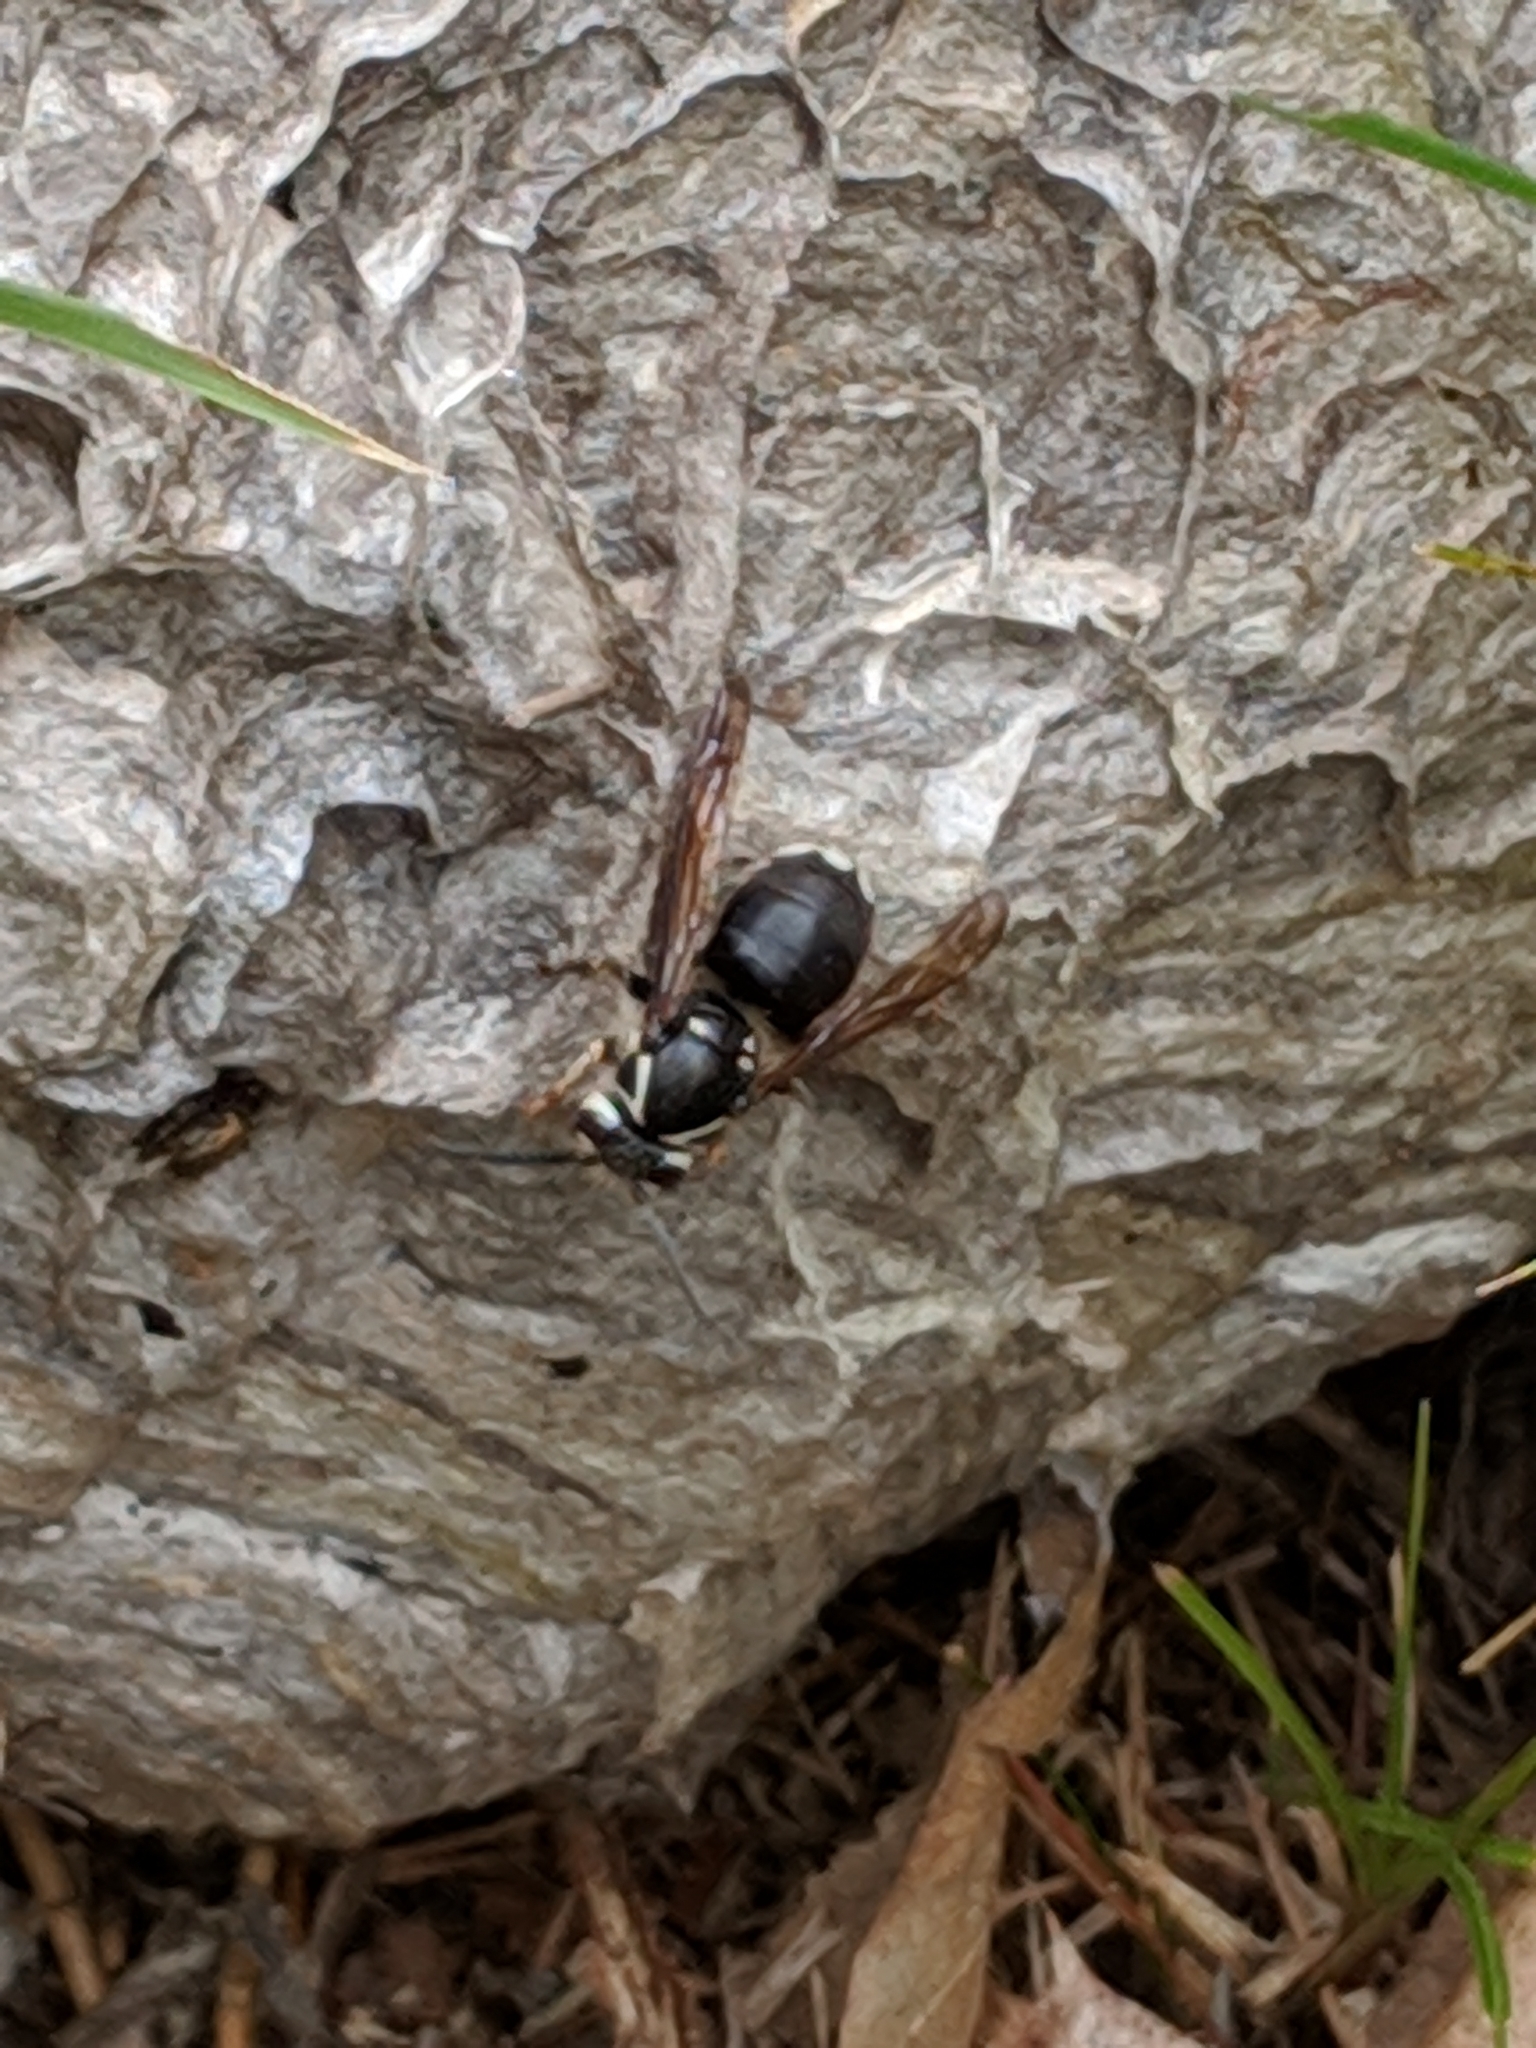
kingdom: Animalia
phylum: Arthropoda
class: Insecta
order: Hymenoptera
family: Vespidae
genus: Dolichovespula
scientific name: Dolichovespula maculata
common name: Bald-faced hornet
